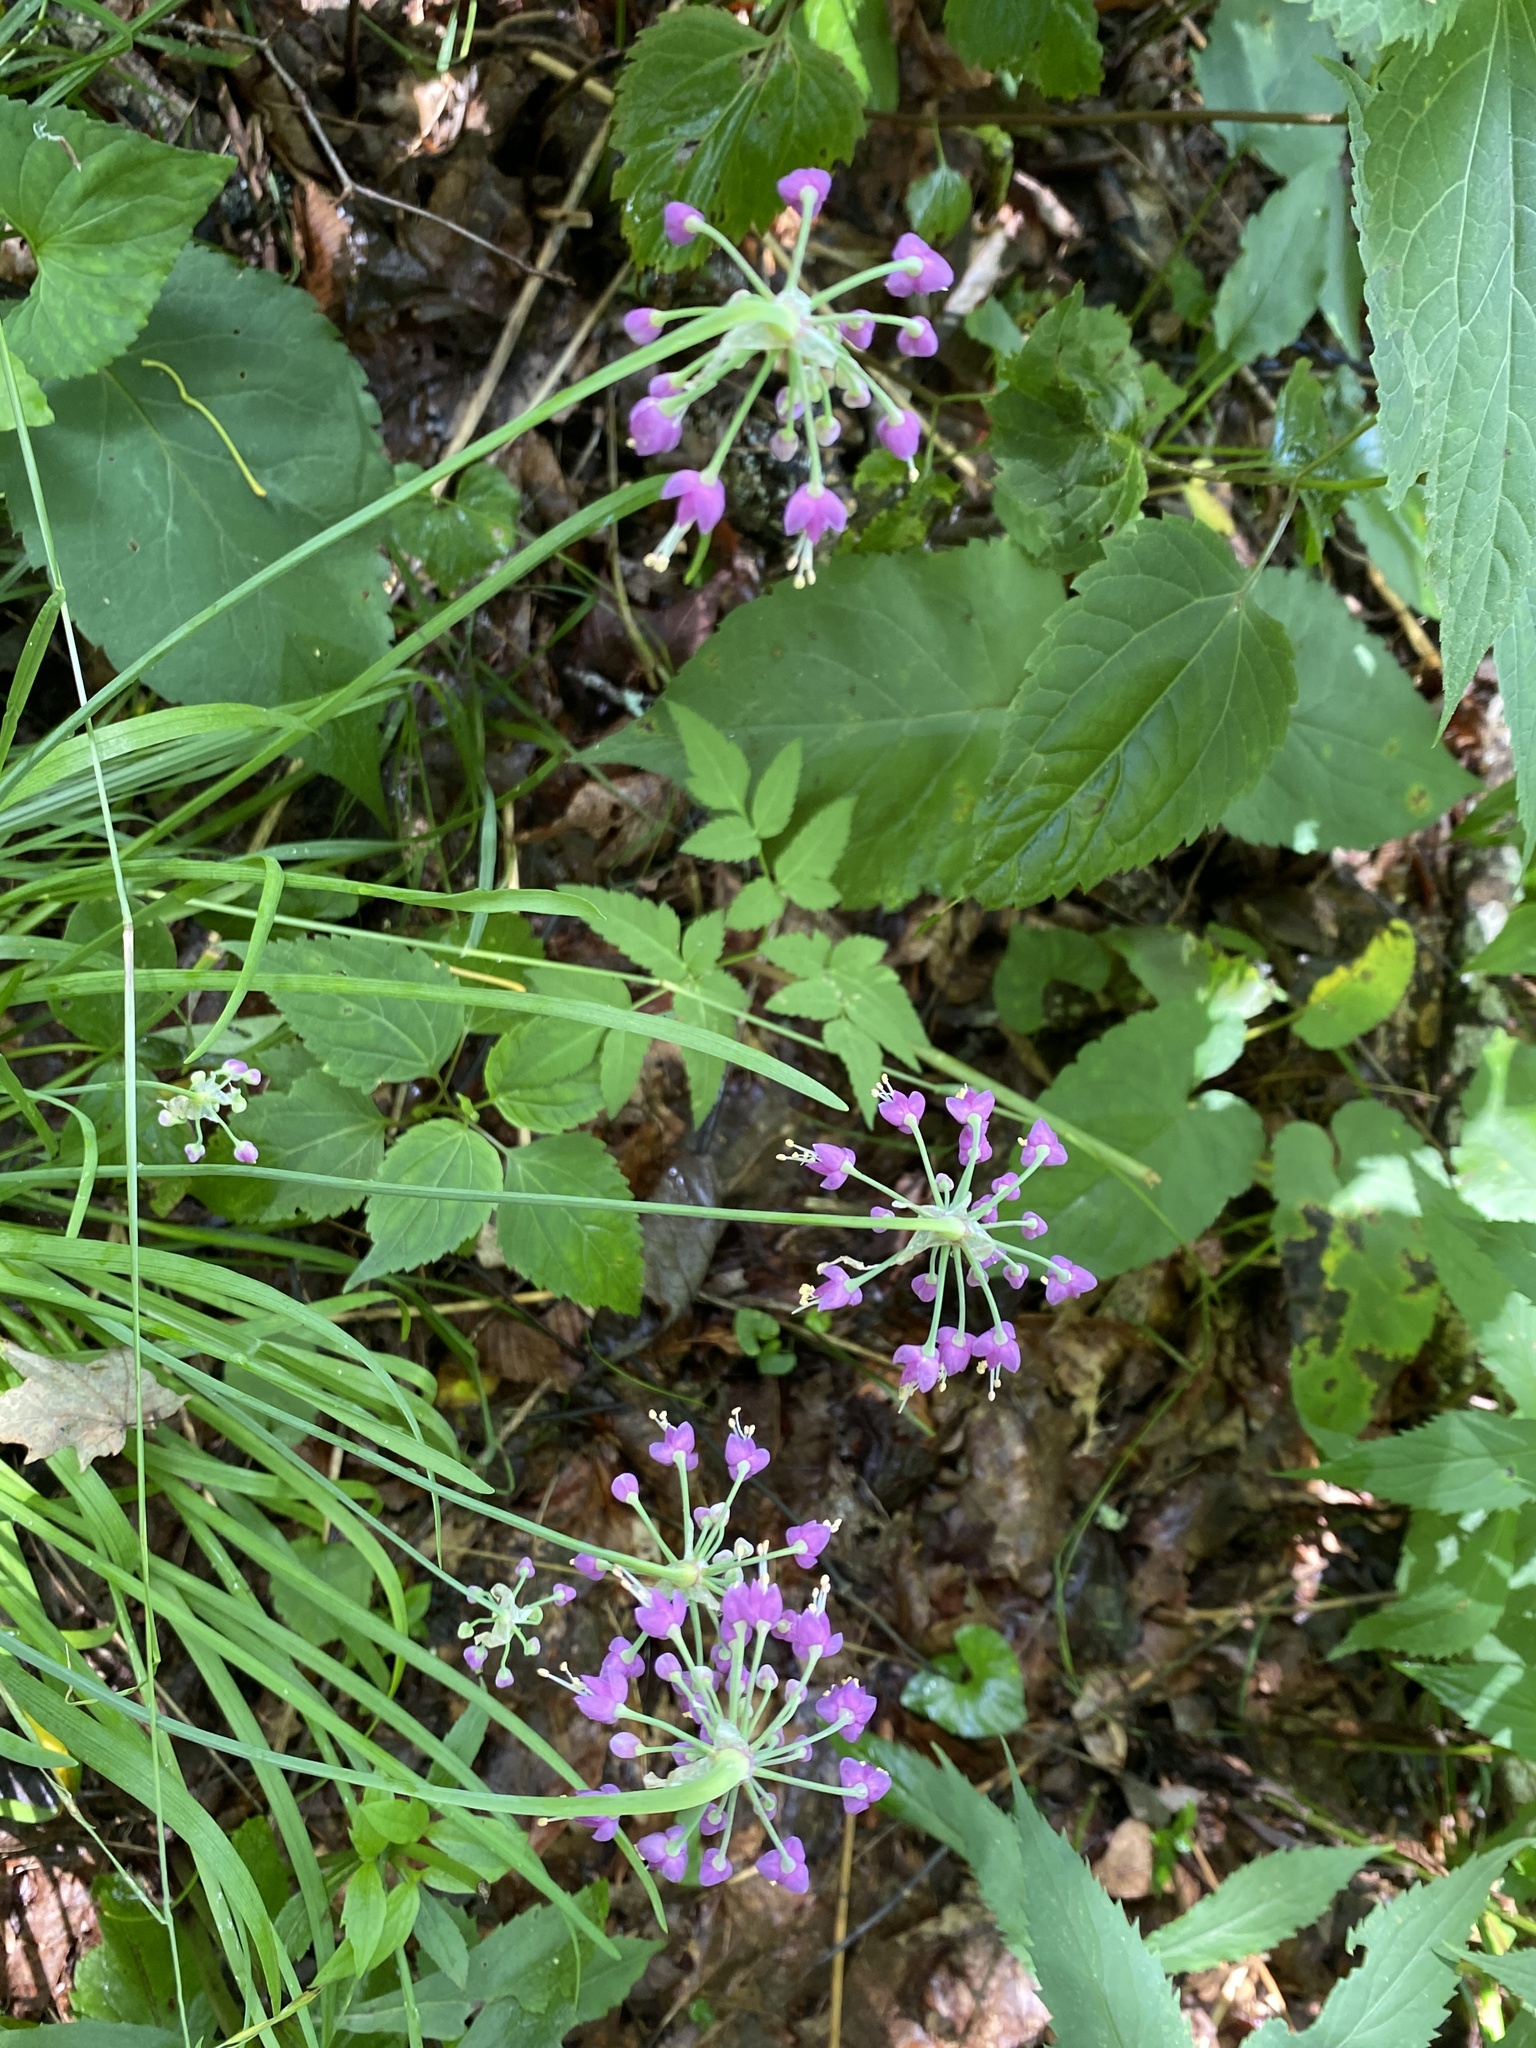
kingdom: Plantae
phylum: Tracheophyta
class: Liliopsida
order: Asparagales
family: Amaryllidaceae
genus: Allium
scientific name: Allium cernuum
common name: Nodding onion
